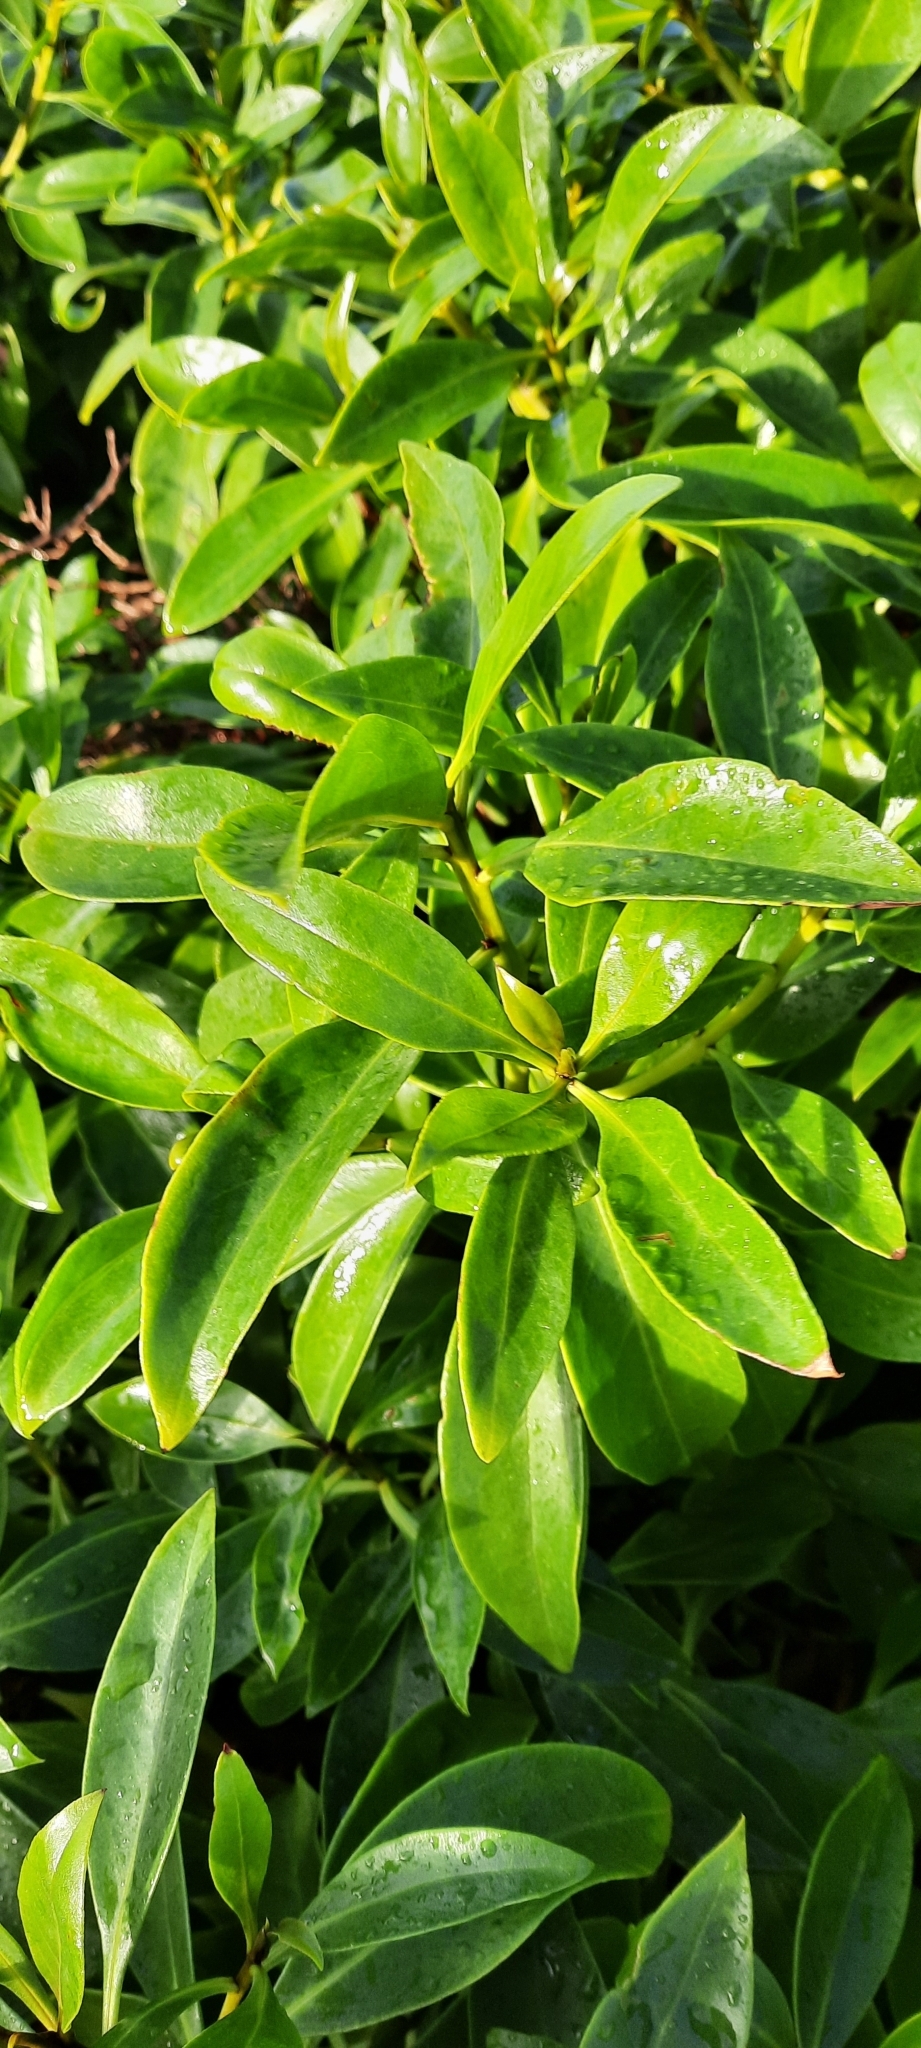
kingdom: Plantae
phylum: Tracheophyta
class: Magnoliopsida
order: Lamiales
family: Scrophulariaceae
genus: Myoporum
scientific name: Myoporum insulare
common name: Common boobialla
